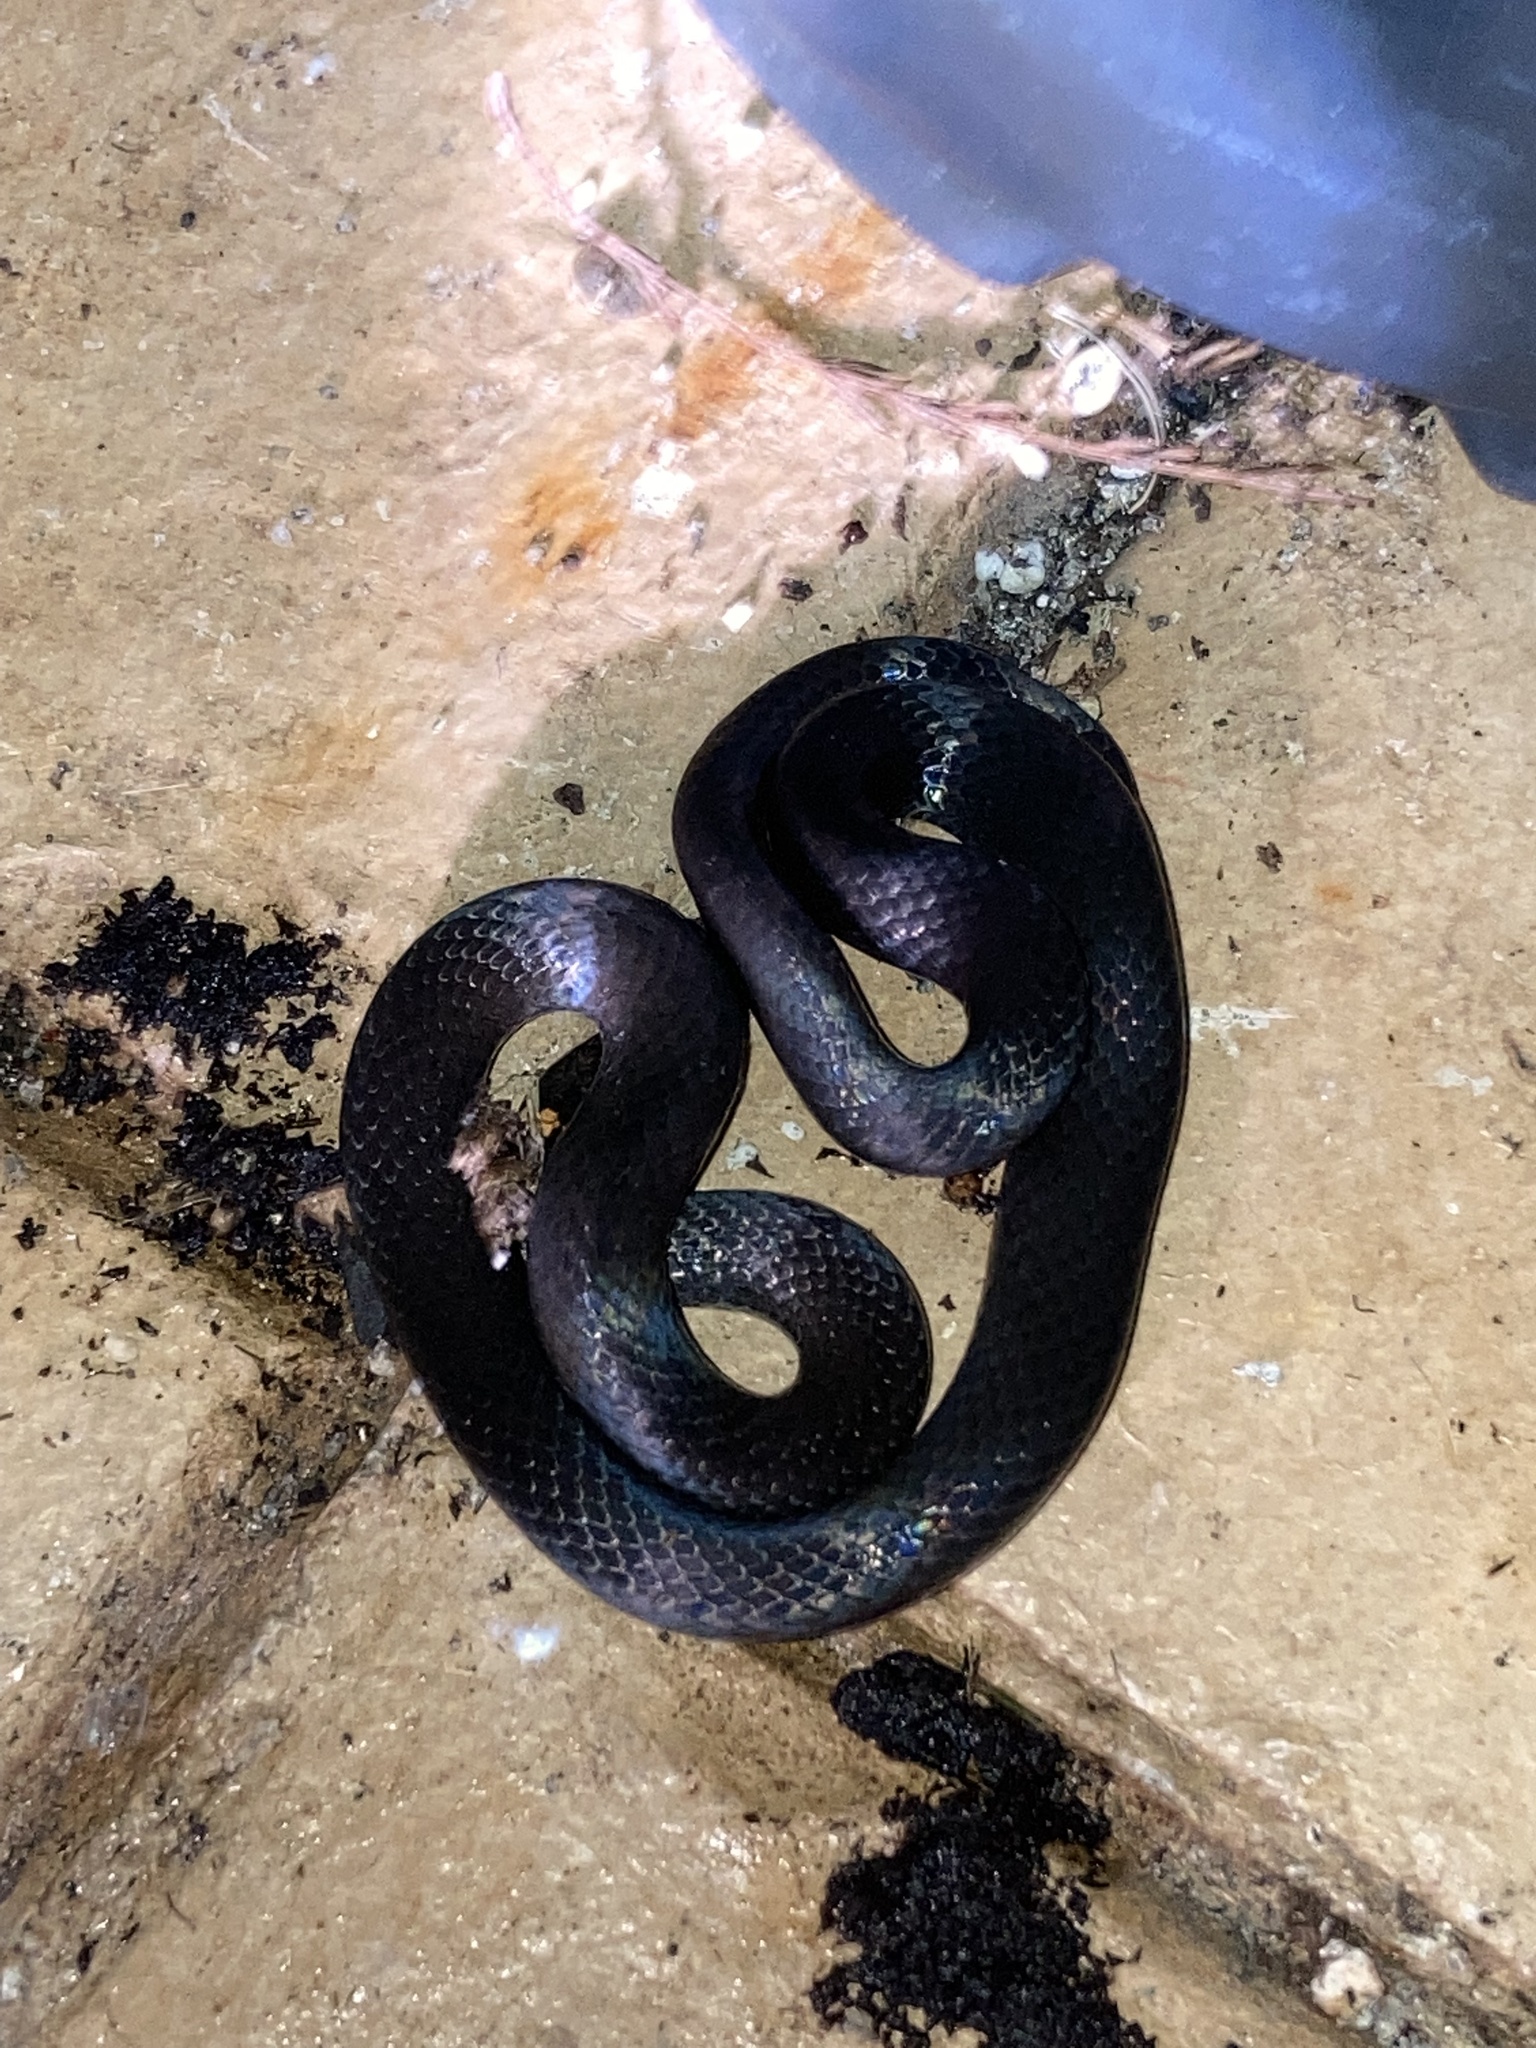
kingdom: Animalia
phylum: Chordata
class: Squamata
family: Colubridae
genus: Diadophis
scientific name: Diadophis punctatus
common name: Ringneck snake
